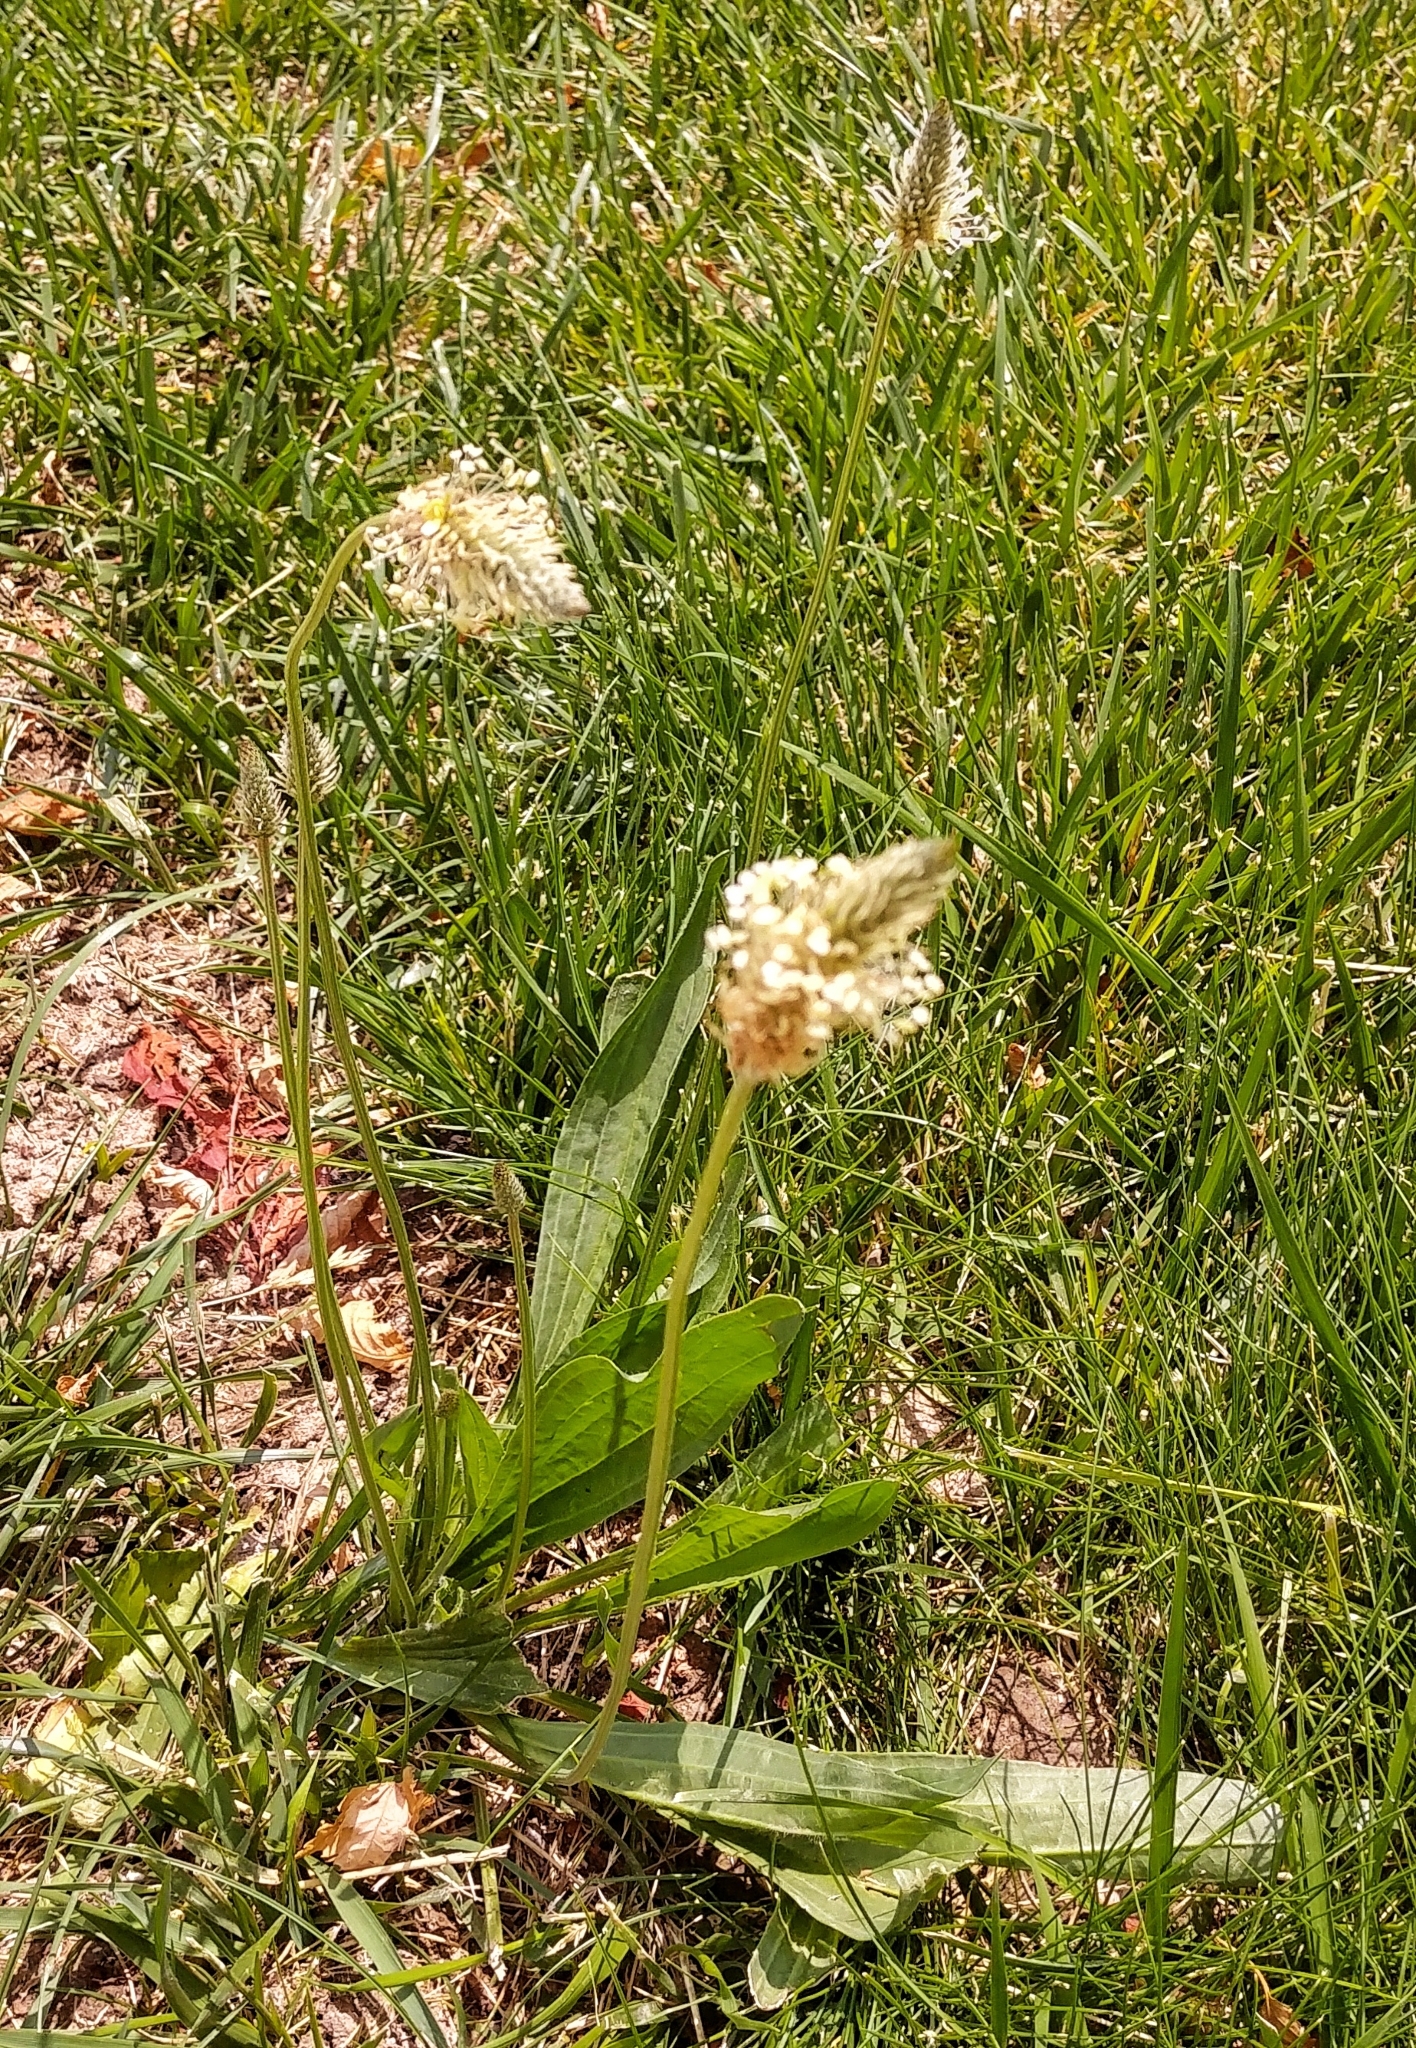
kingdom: Plantae
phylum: Tracheophyta
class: Magnoliopsida
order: Lamiales
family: Plantaginaceae
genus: Plantago
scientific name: Plantago lanceolata
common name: Ribwort plantain
